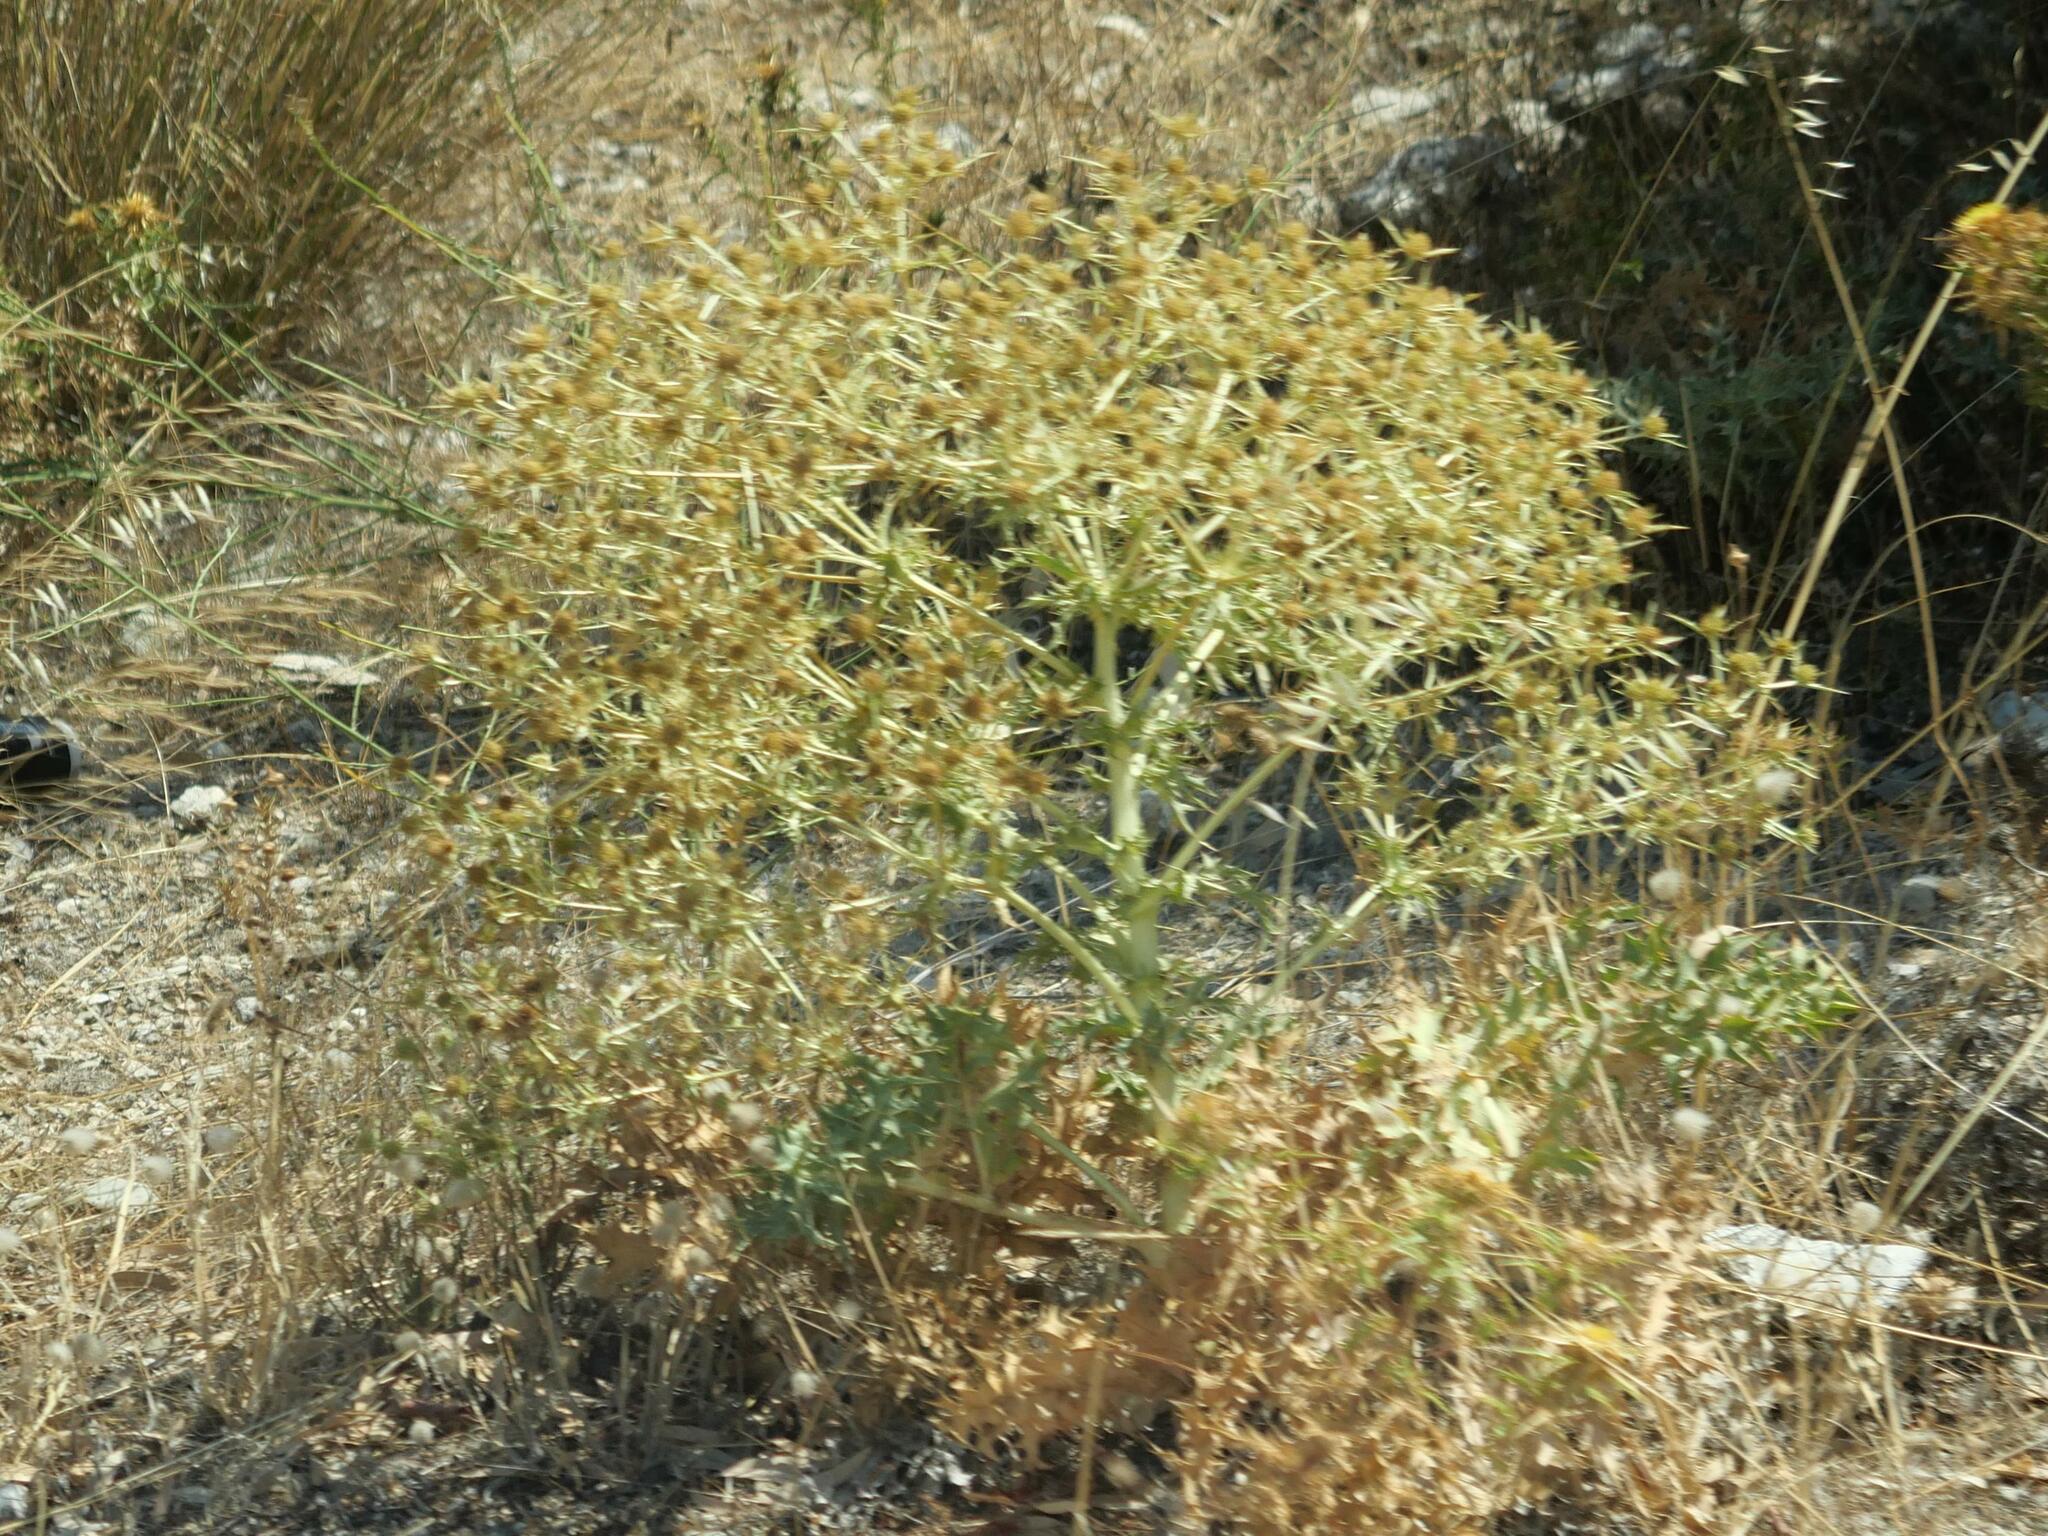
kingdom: Plantae
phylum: Tracheophyta
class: Magnoliopsida
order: Apiales
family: Apiaceae
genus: Eryngium
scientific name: Eryngium campestre
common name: Field eryngo
